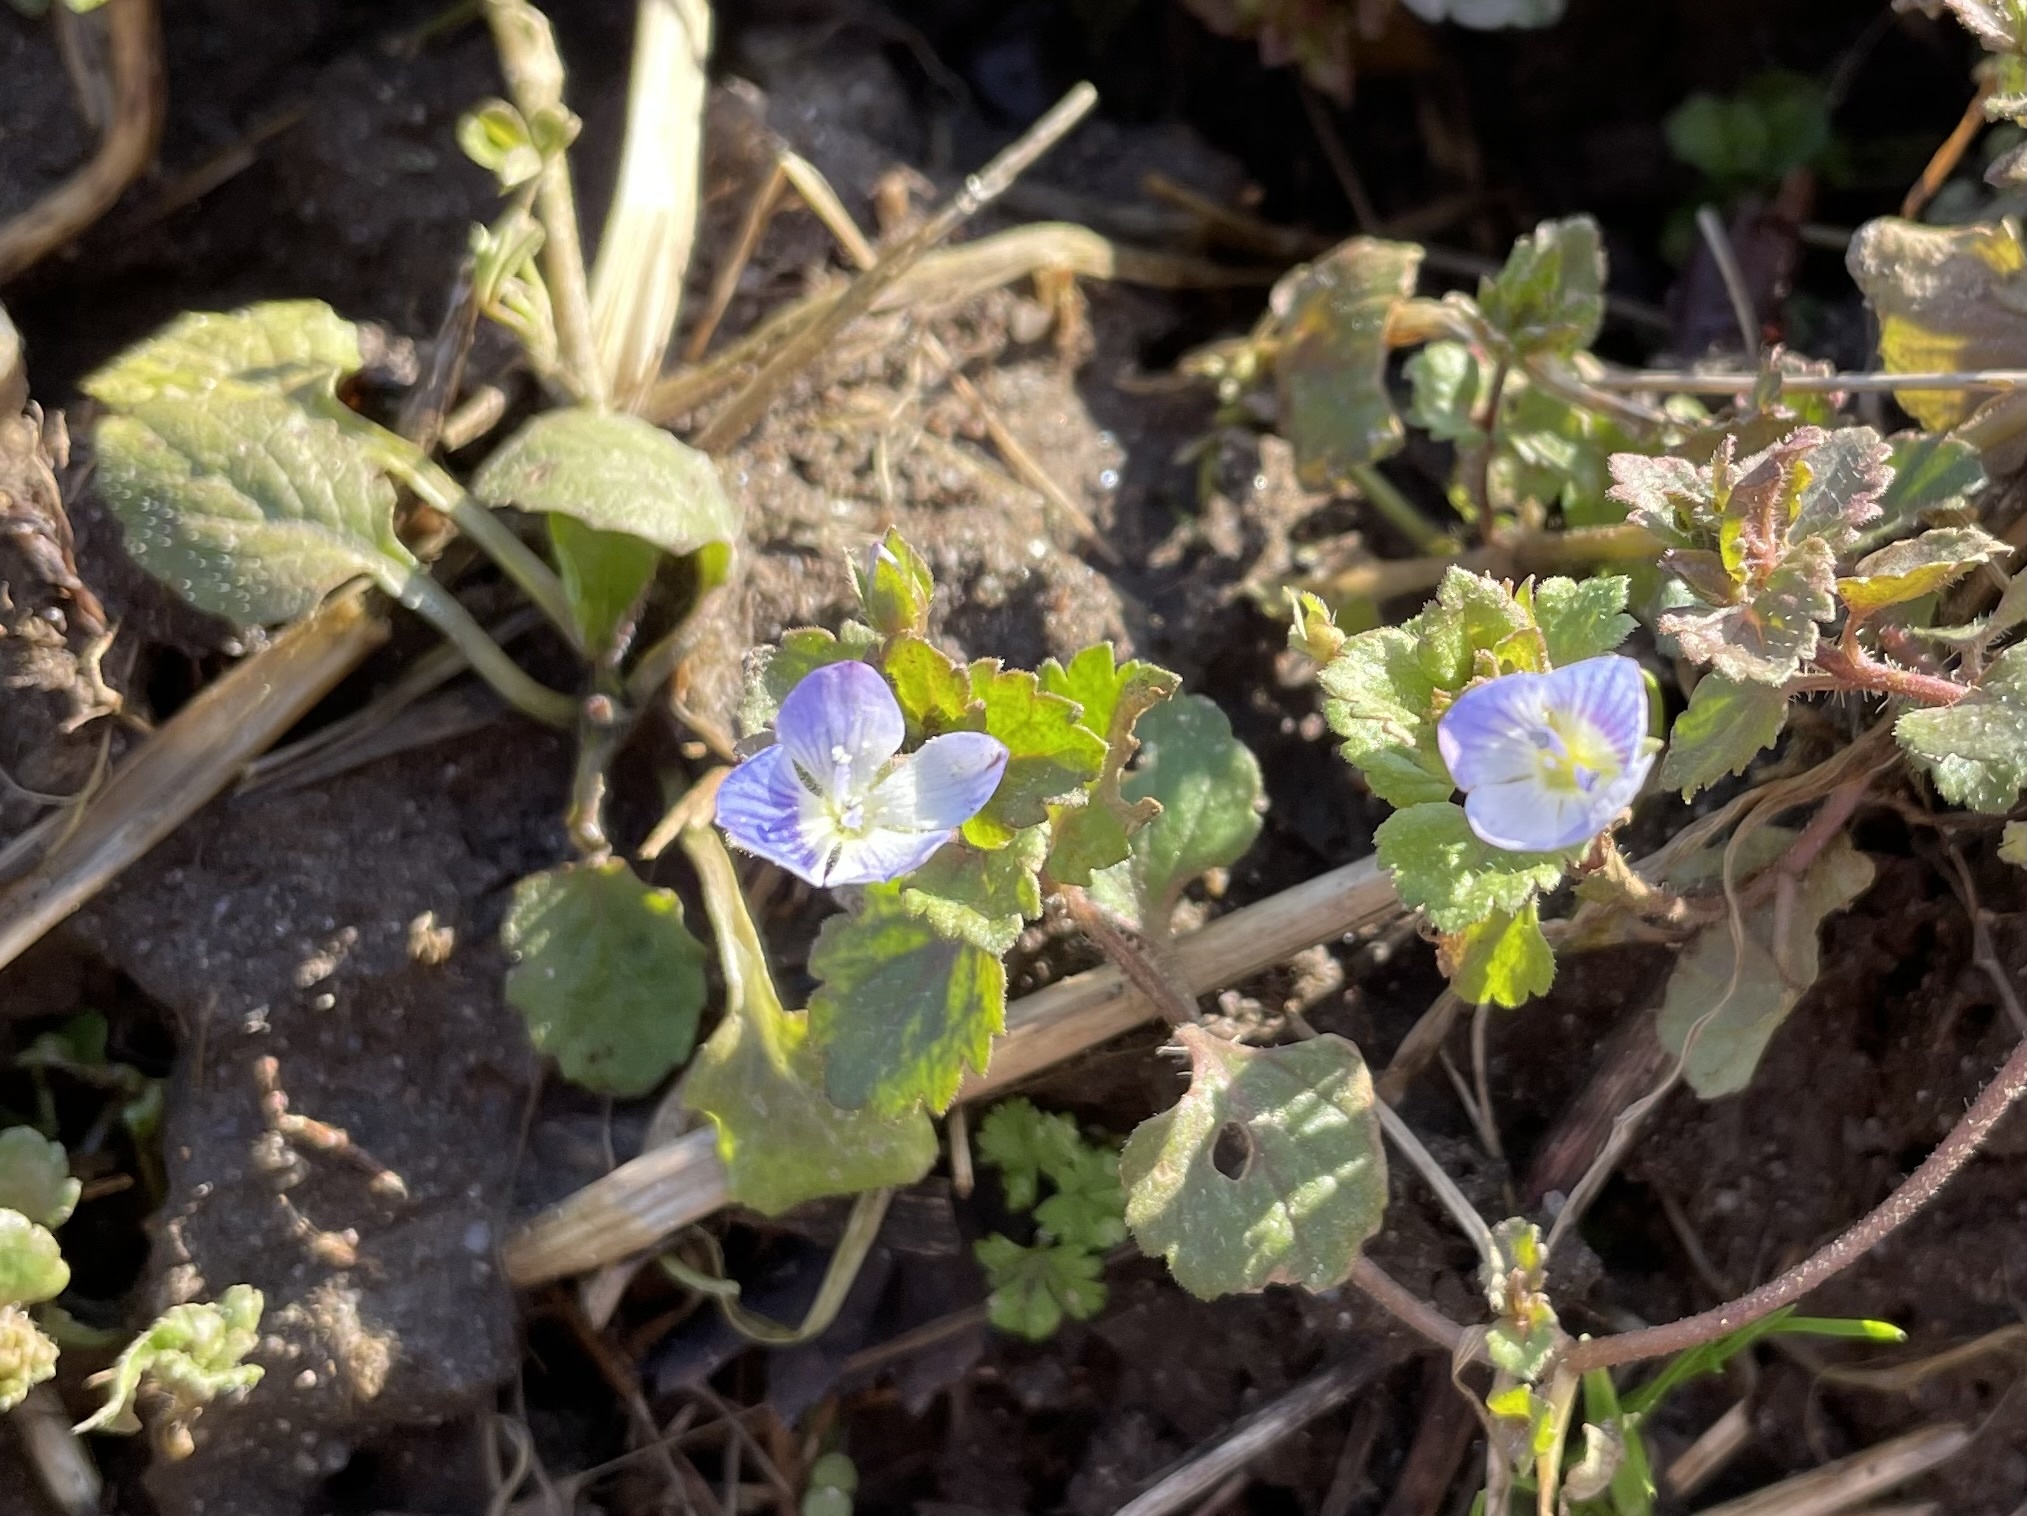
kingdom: Plantae
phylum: Tracheophyta
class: Magnoliopsida
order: Lamiales
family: Plantaginaceae
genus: Veronica
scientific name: Veronica persica
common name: Common field-speedwell
